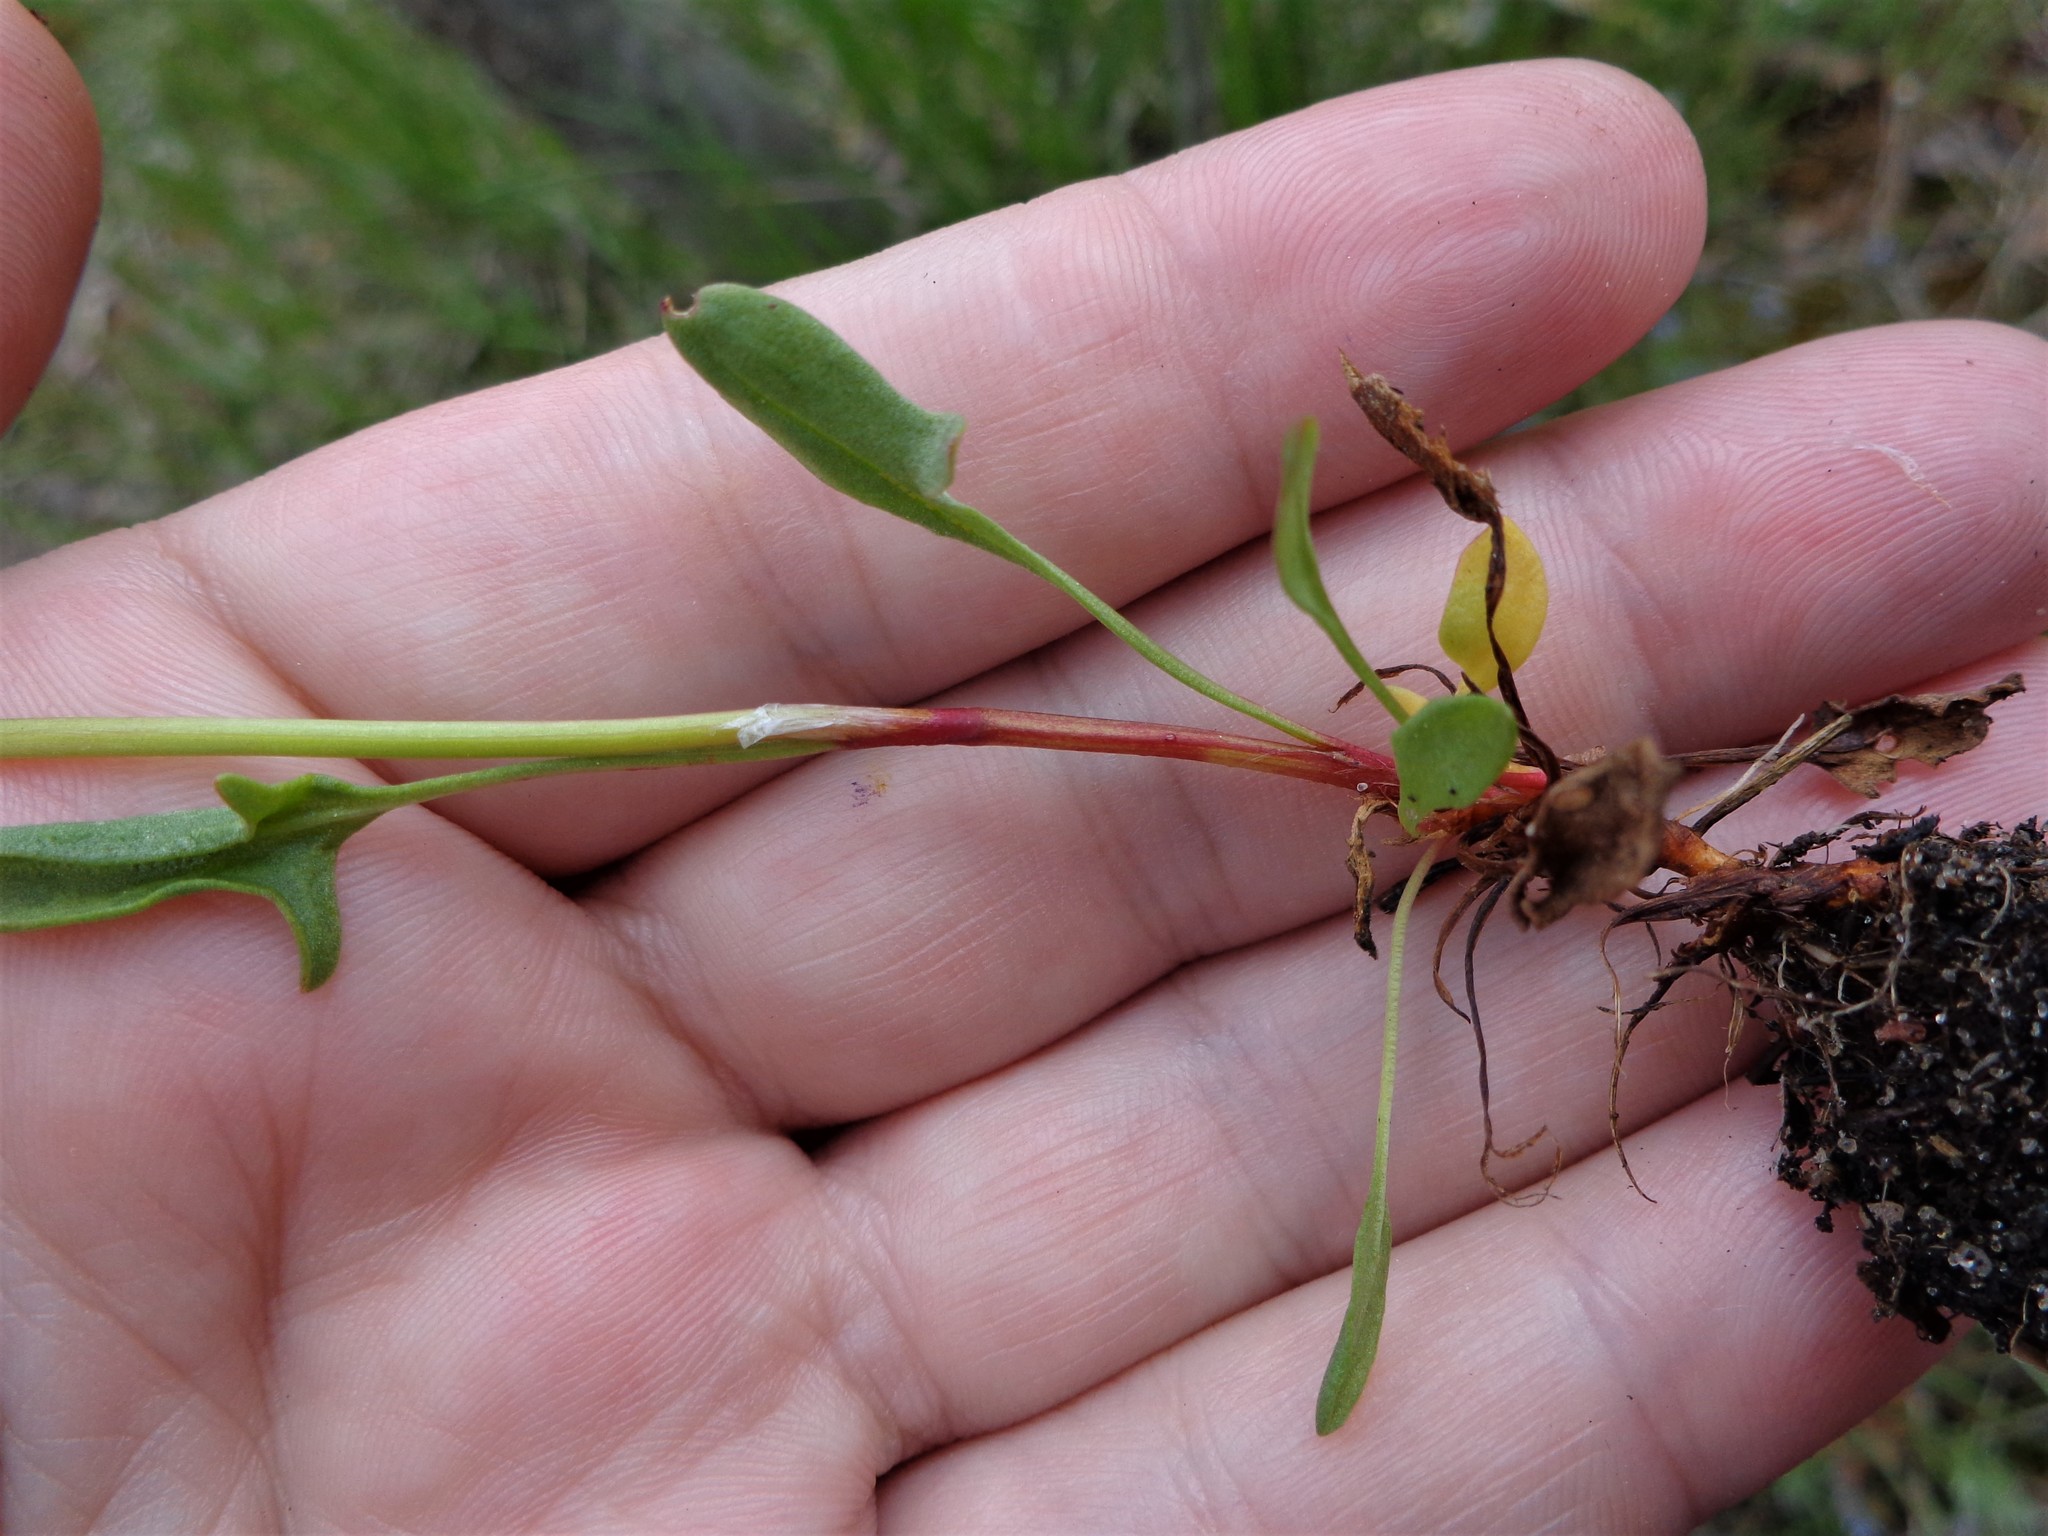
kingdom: Plantae
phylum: Tracheophyta
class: Magnoliopsida
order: Caryophyllales
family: Polygonaceae
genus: Rumex
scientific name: Rumex acetosella
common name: Common sheep sorrel
